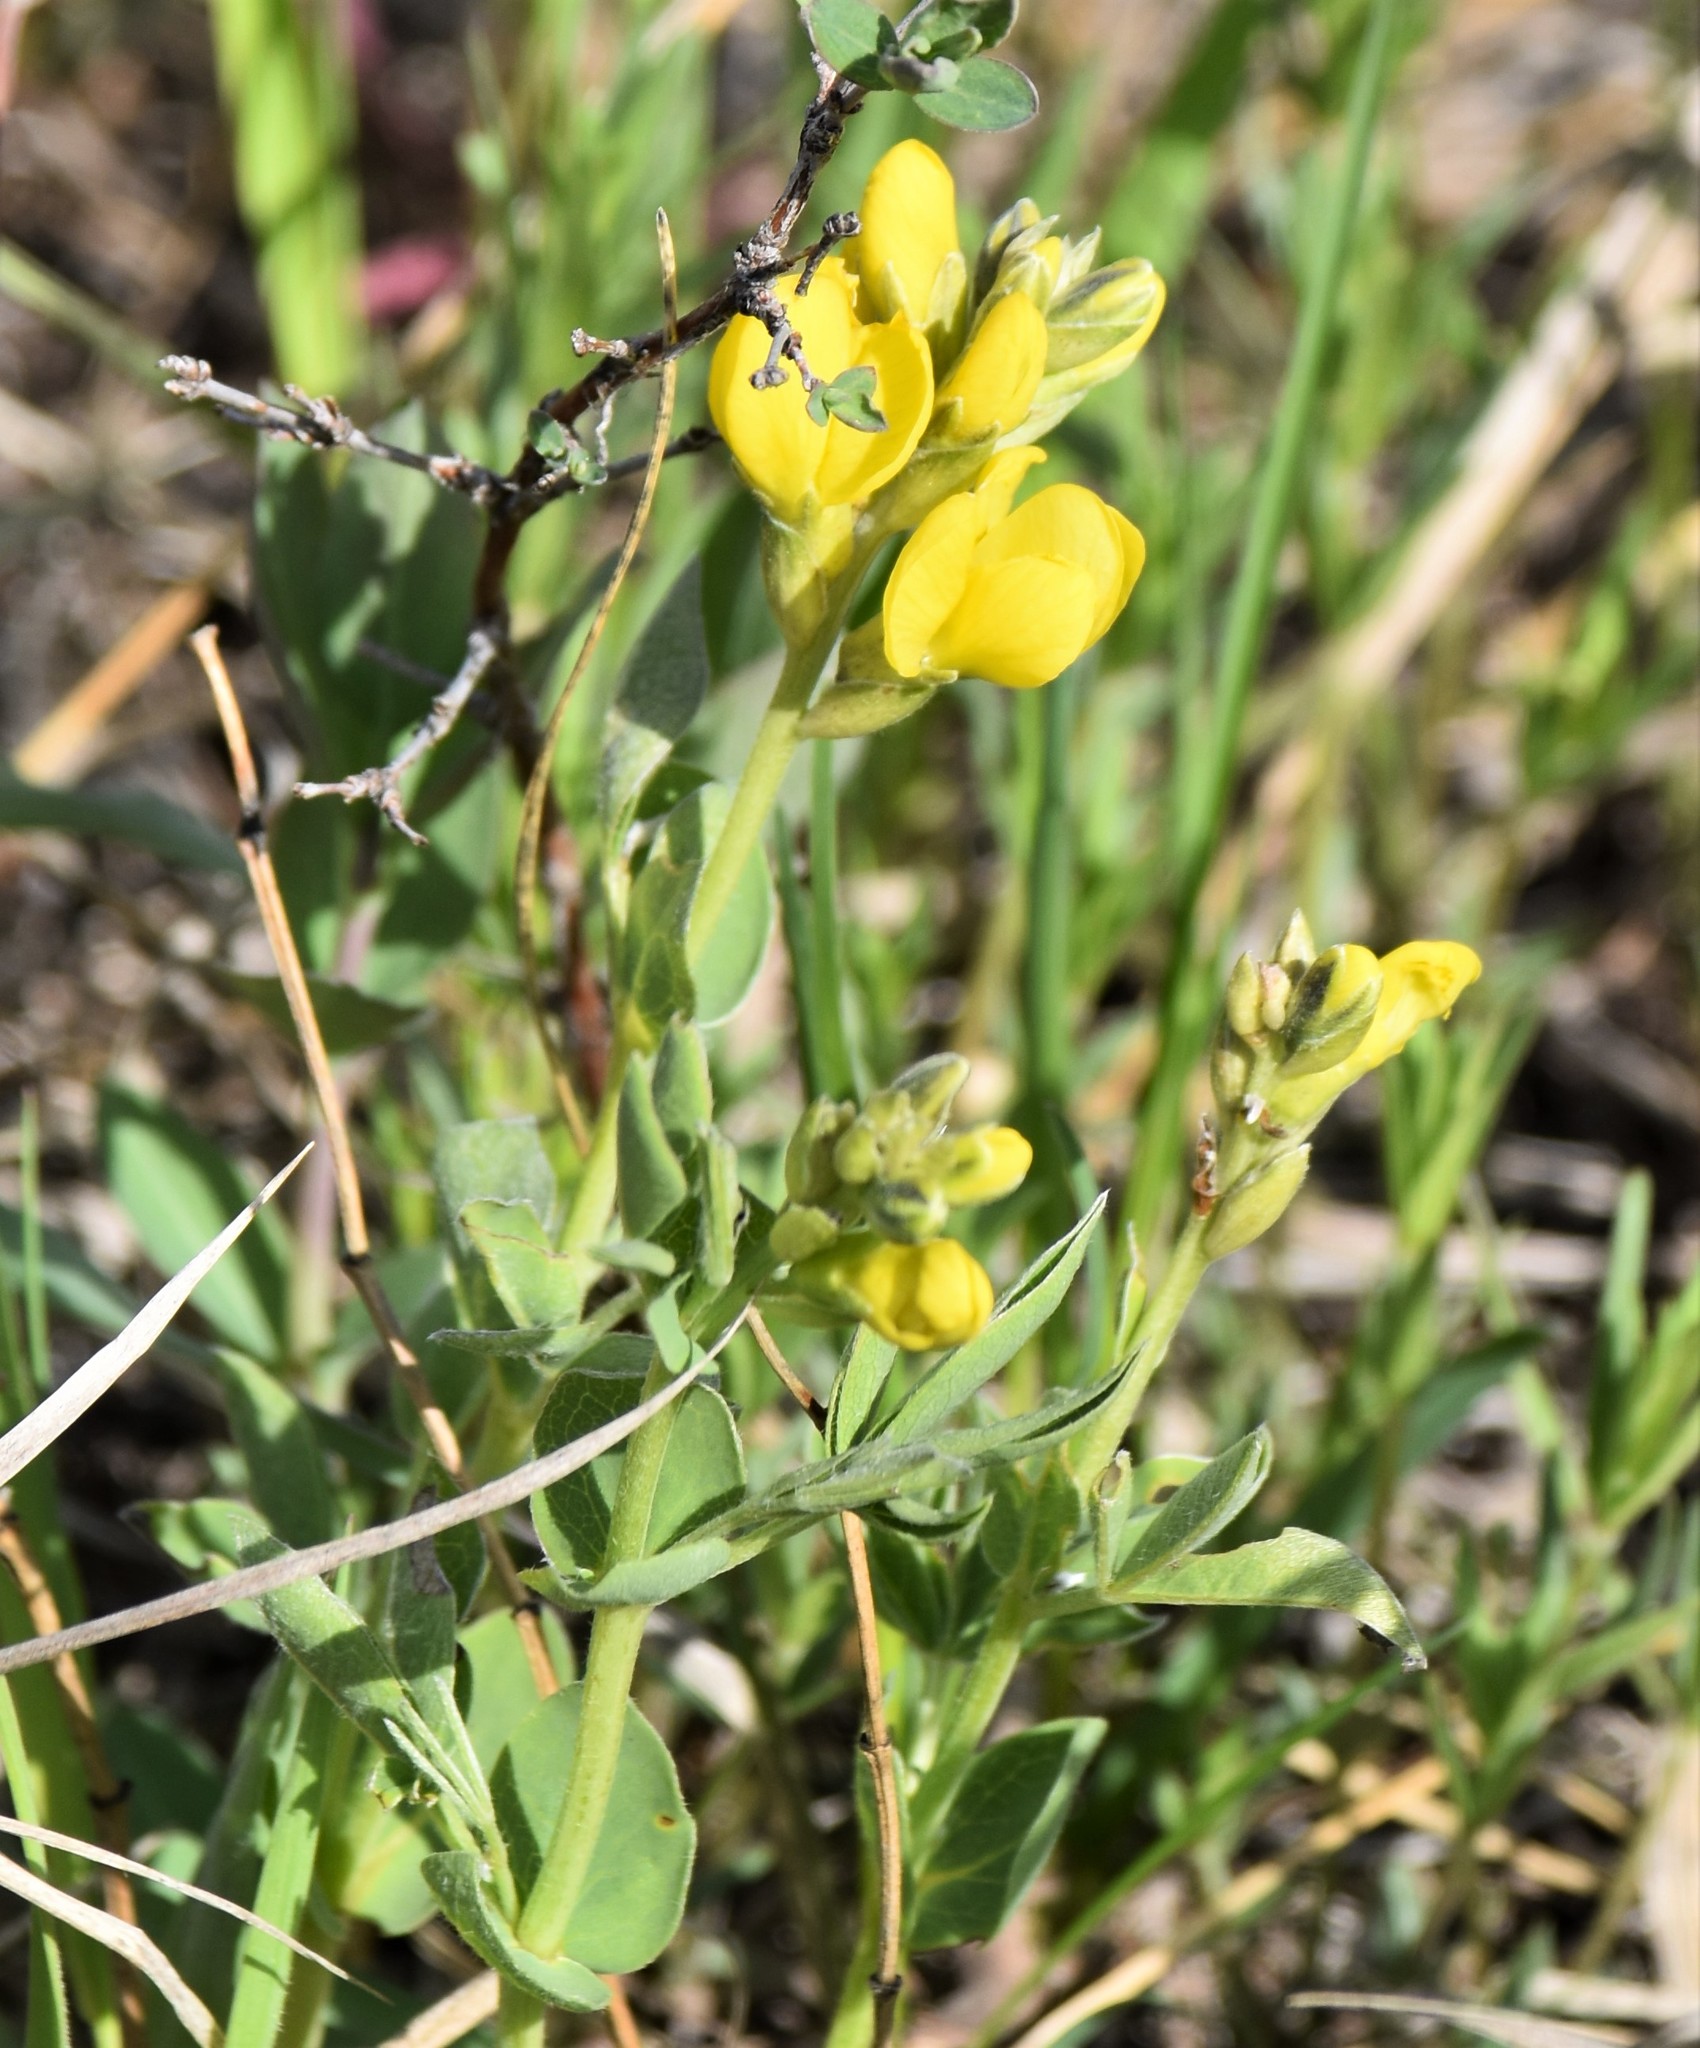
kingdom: Plantae
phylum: Tracheophyta
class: Magnoliopsida
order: Fabales
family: Fabaceae
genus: Thermopsis
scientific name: Thermopsis rhombifolia
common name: Circle-pod-pea
